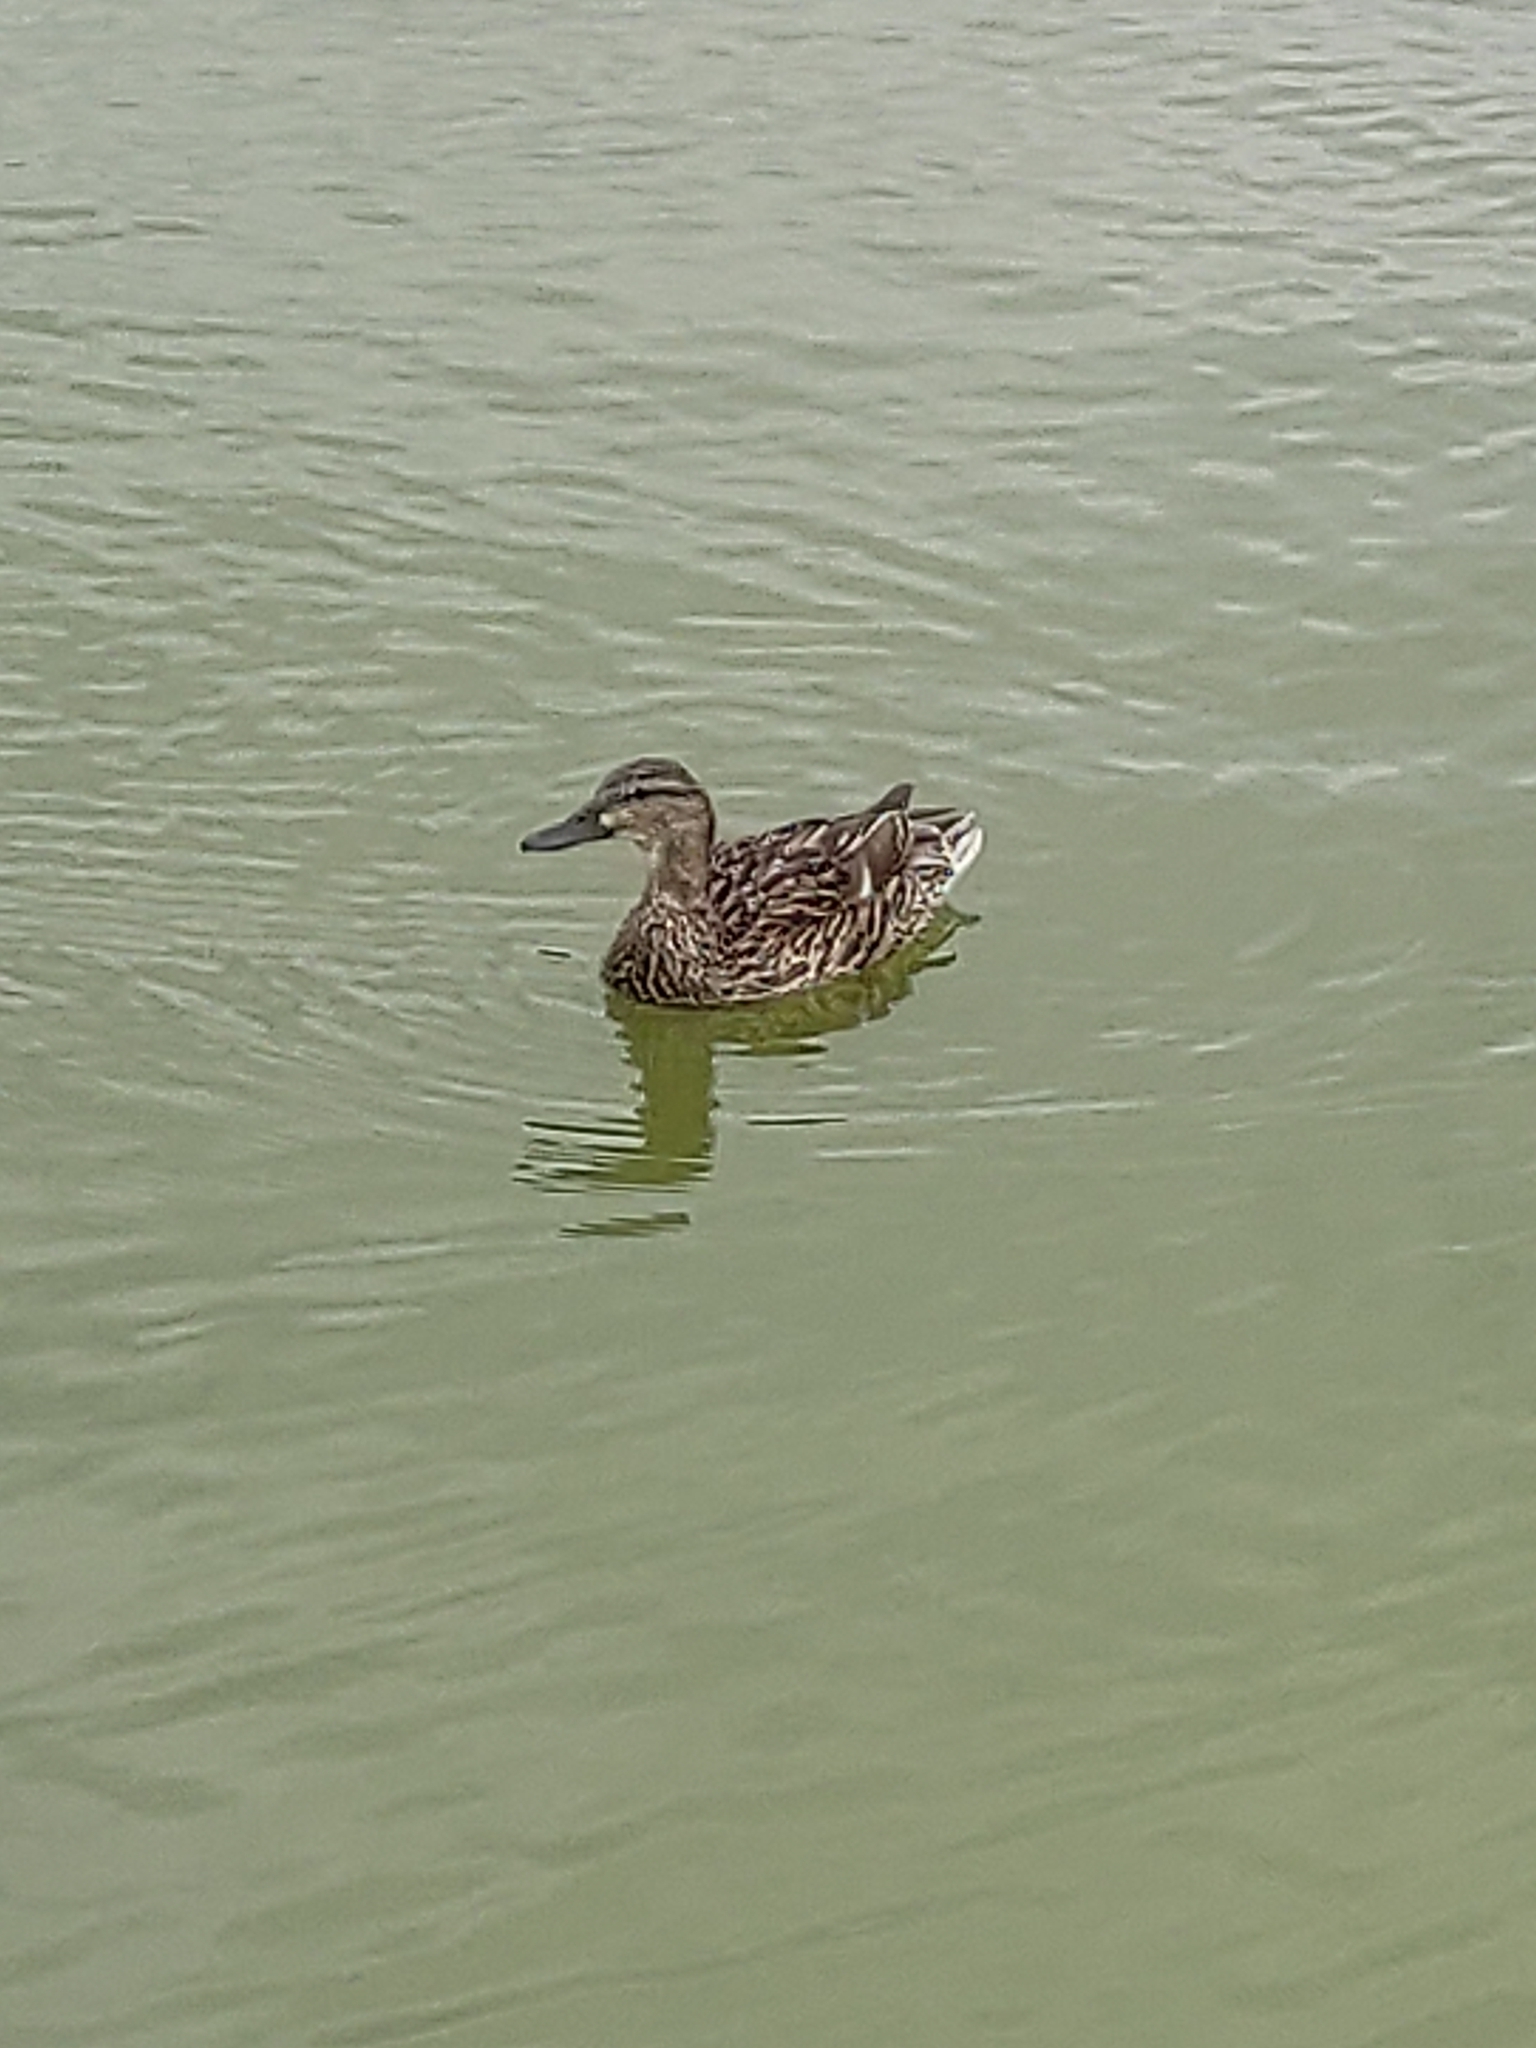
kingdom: Animalia
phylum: Chordata
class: Aves
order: Anseriformes
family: Anatidae
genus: Anas
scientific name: Anas platyrhynchos
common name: Mallard
